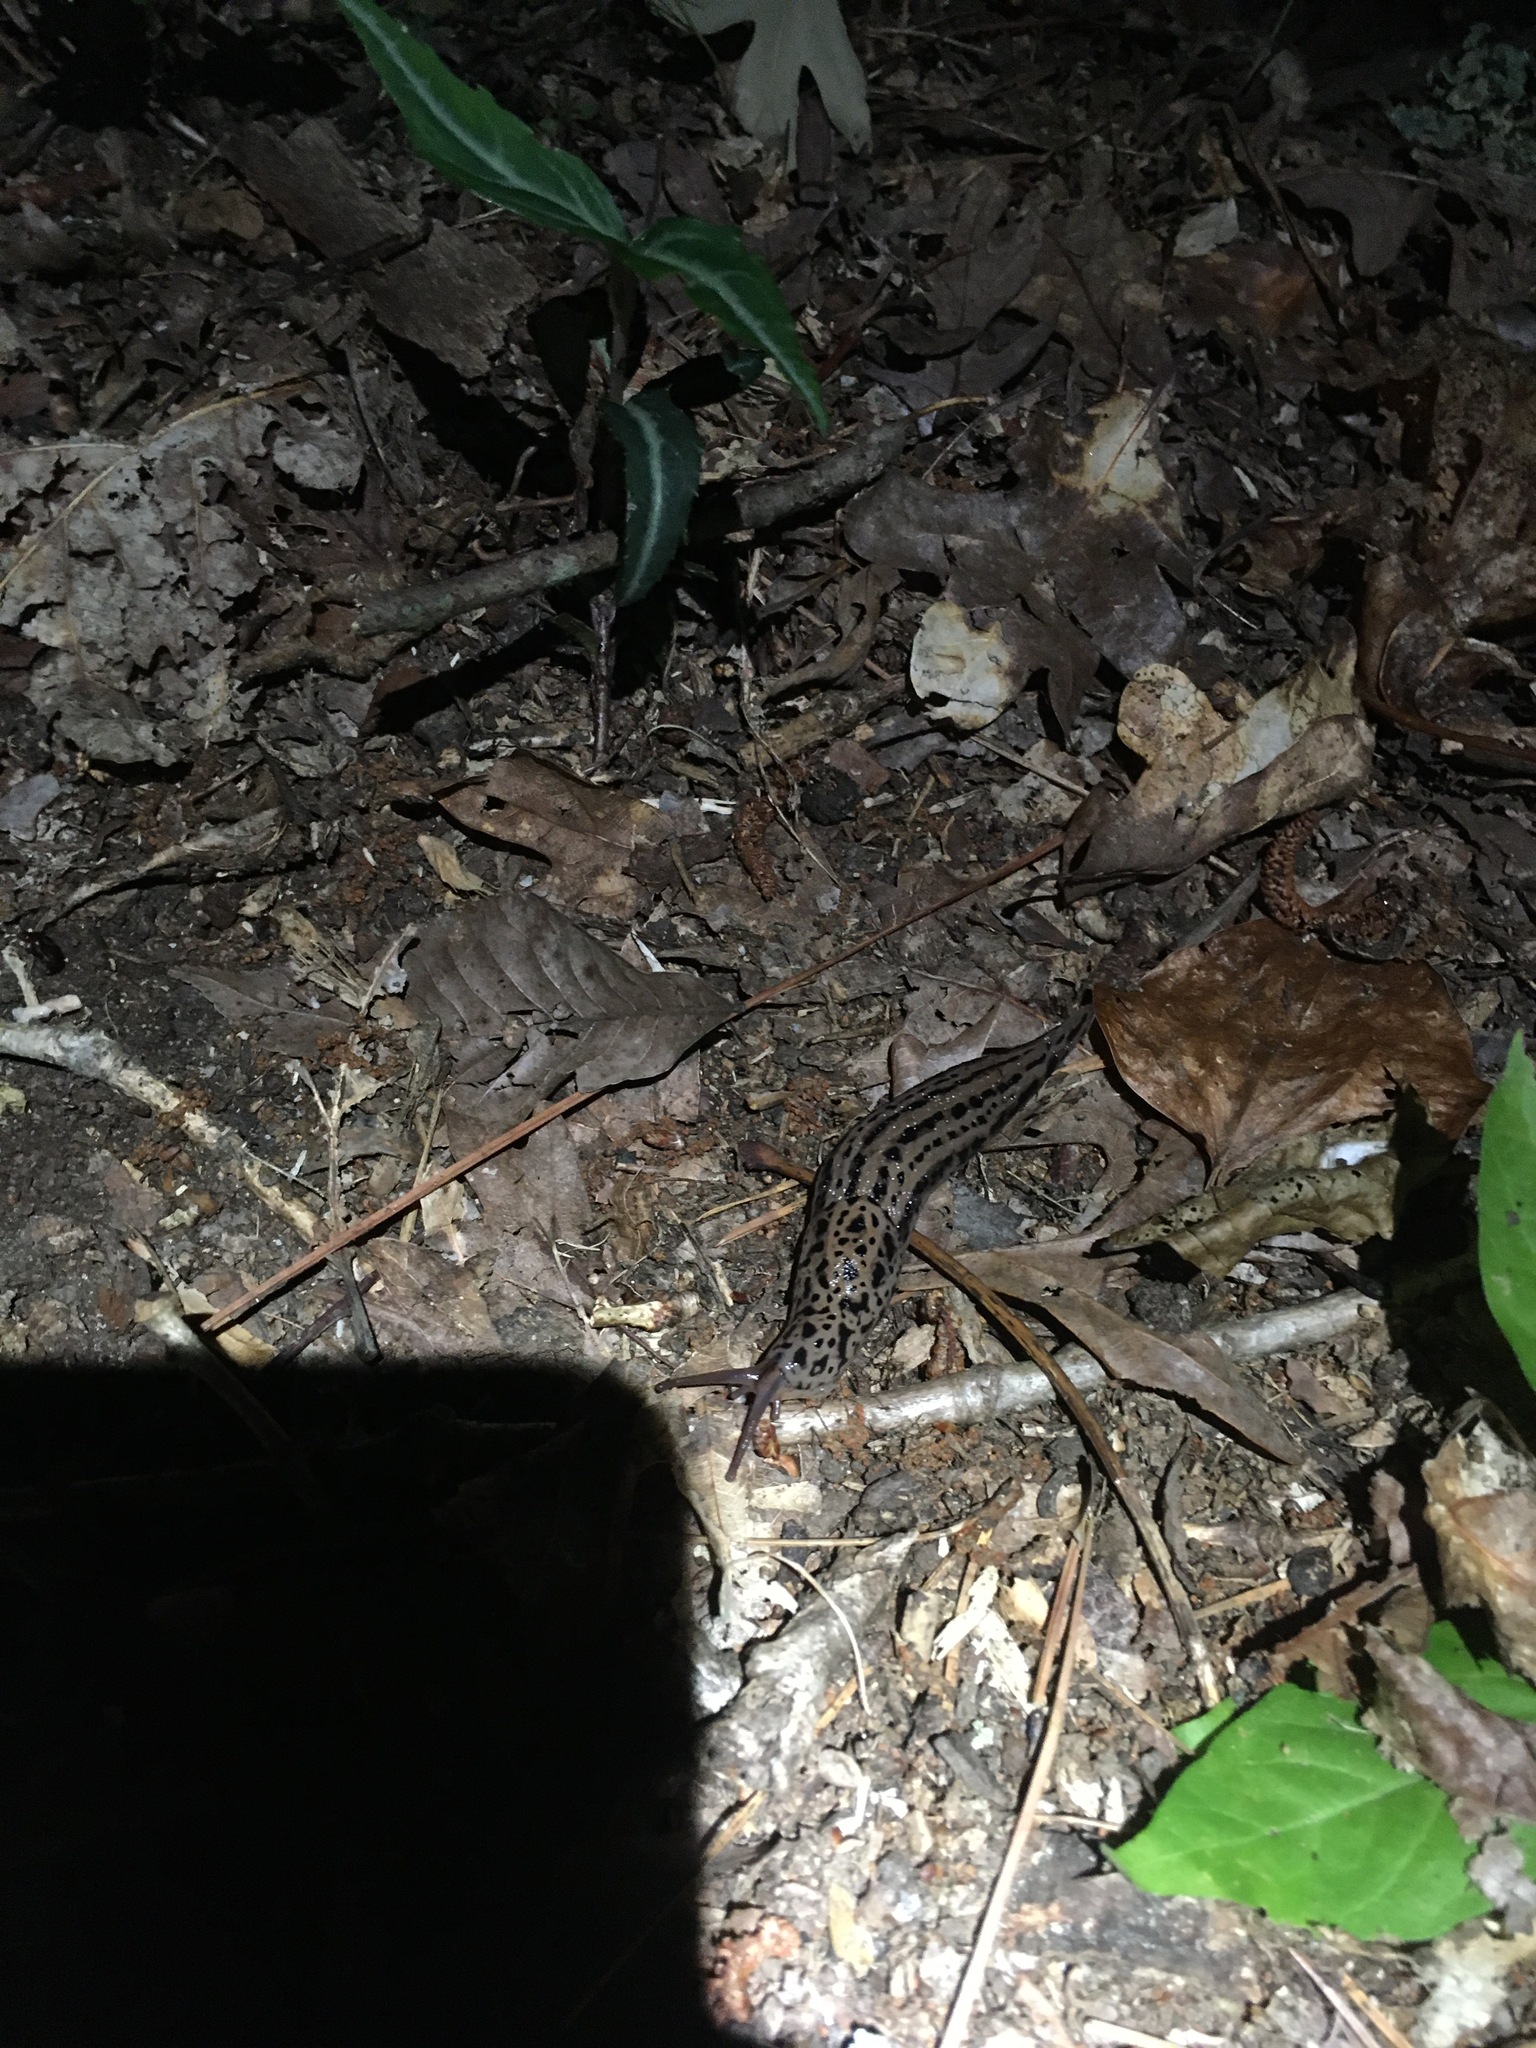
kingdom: Animalia
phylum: Mollusca
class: Gastropoda
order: Stylommatophora
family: Limacidae
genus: Limax
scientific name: Limax maximus
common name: Great grey slug
